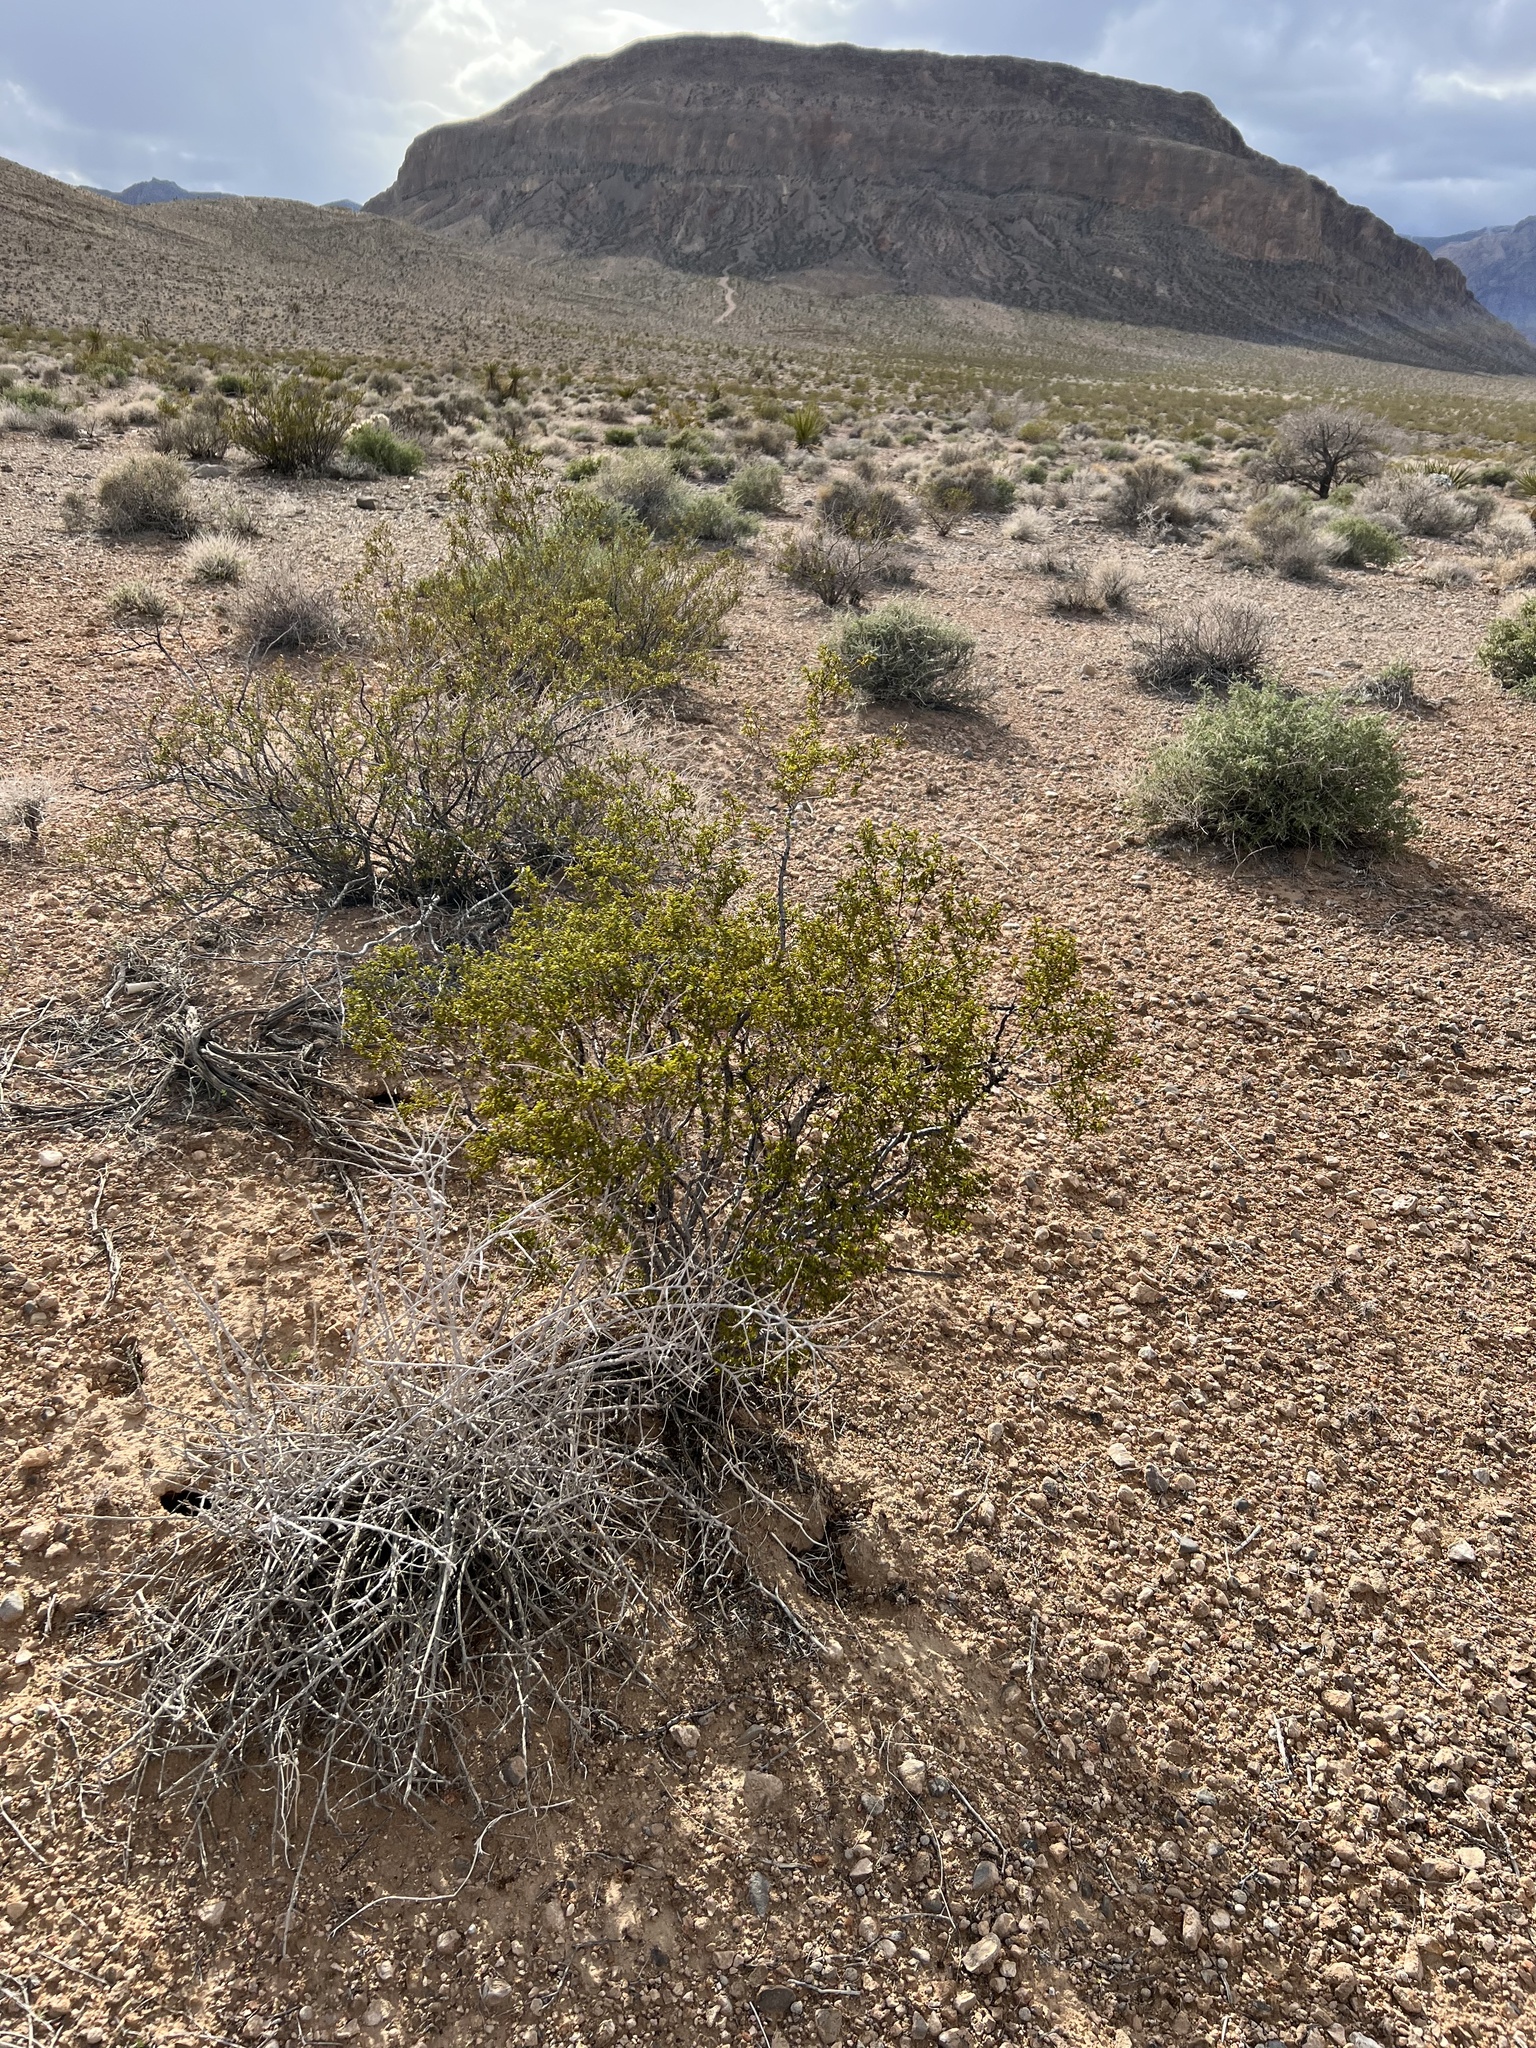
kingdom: Plantae
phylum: Tracheophyta
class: Magnoliopsida
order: Zygophyllales
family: Zygophyllaceae
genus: Larrea
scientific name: Larrea tridentata
